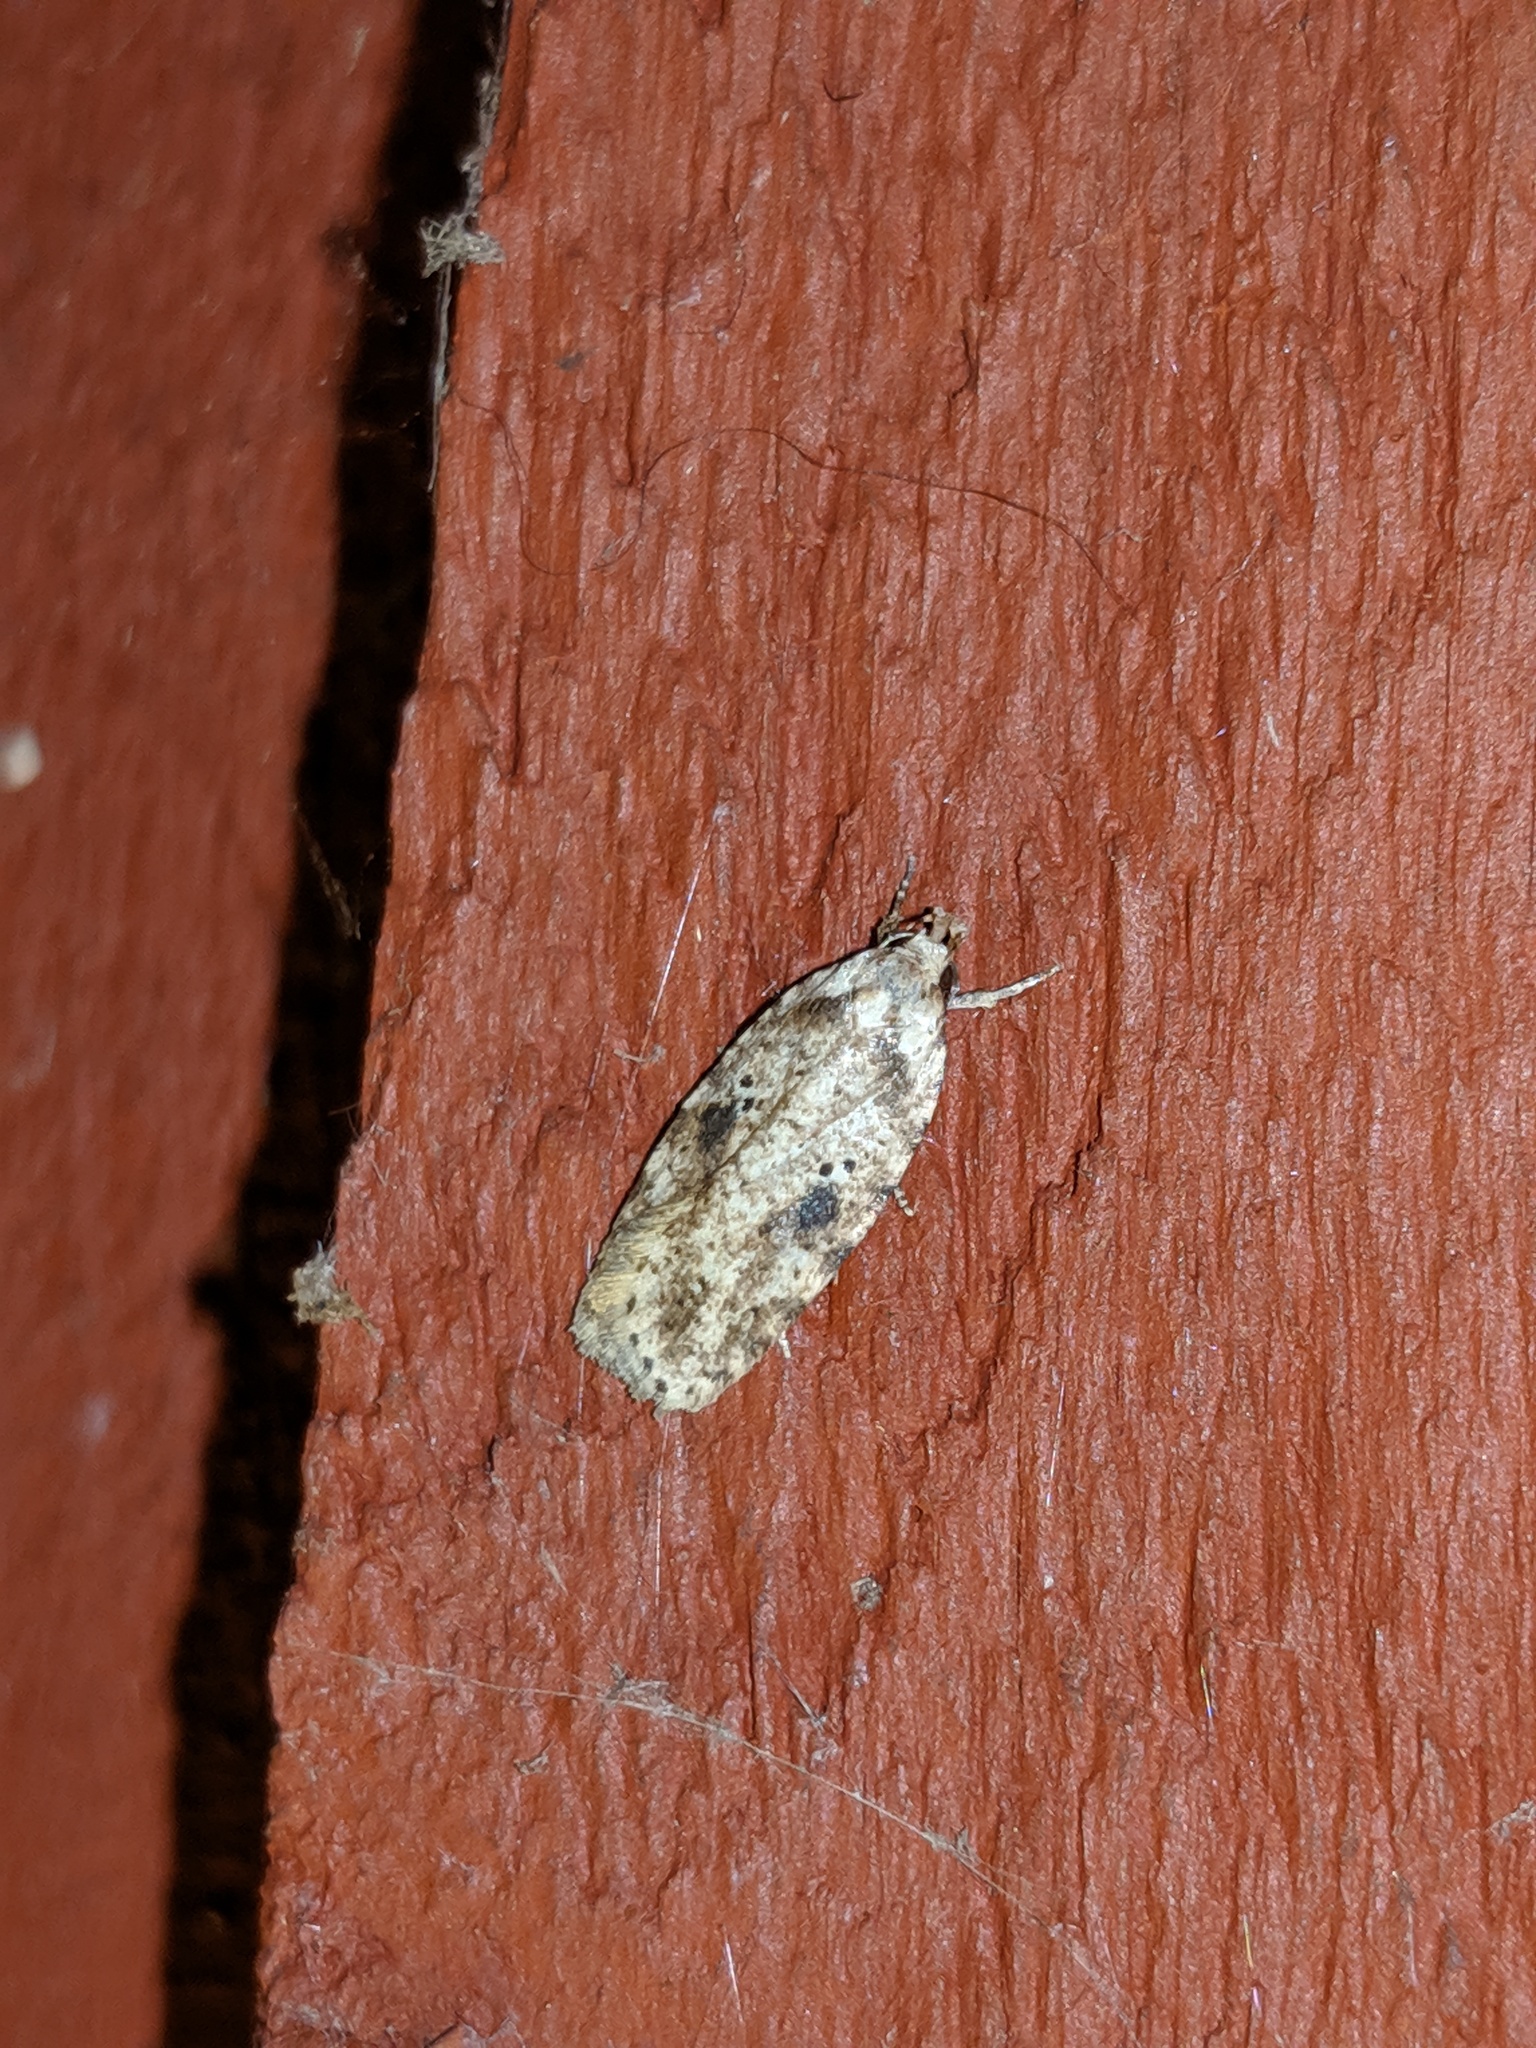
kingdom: Animalia
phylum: Arthropoda
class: Insecta
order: Lepidoptera
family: Depressariidae
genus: Agonopterix
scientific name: Agonopterix canadensis
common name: Canadian agonopterix moth
